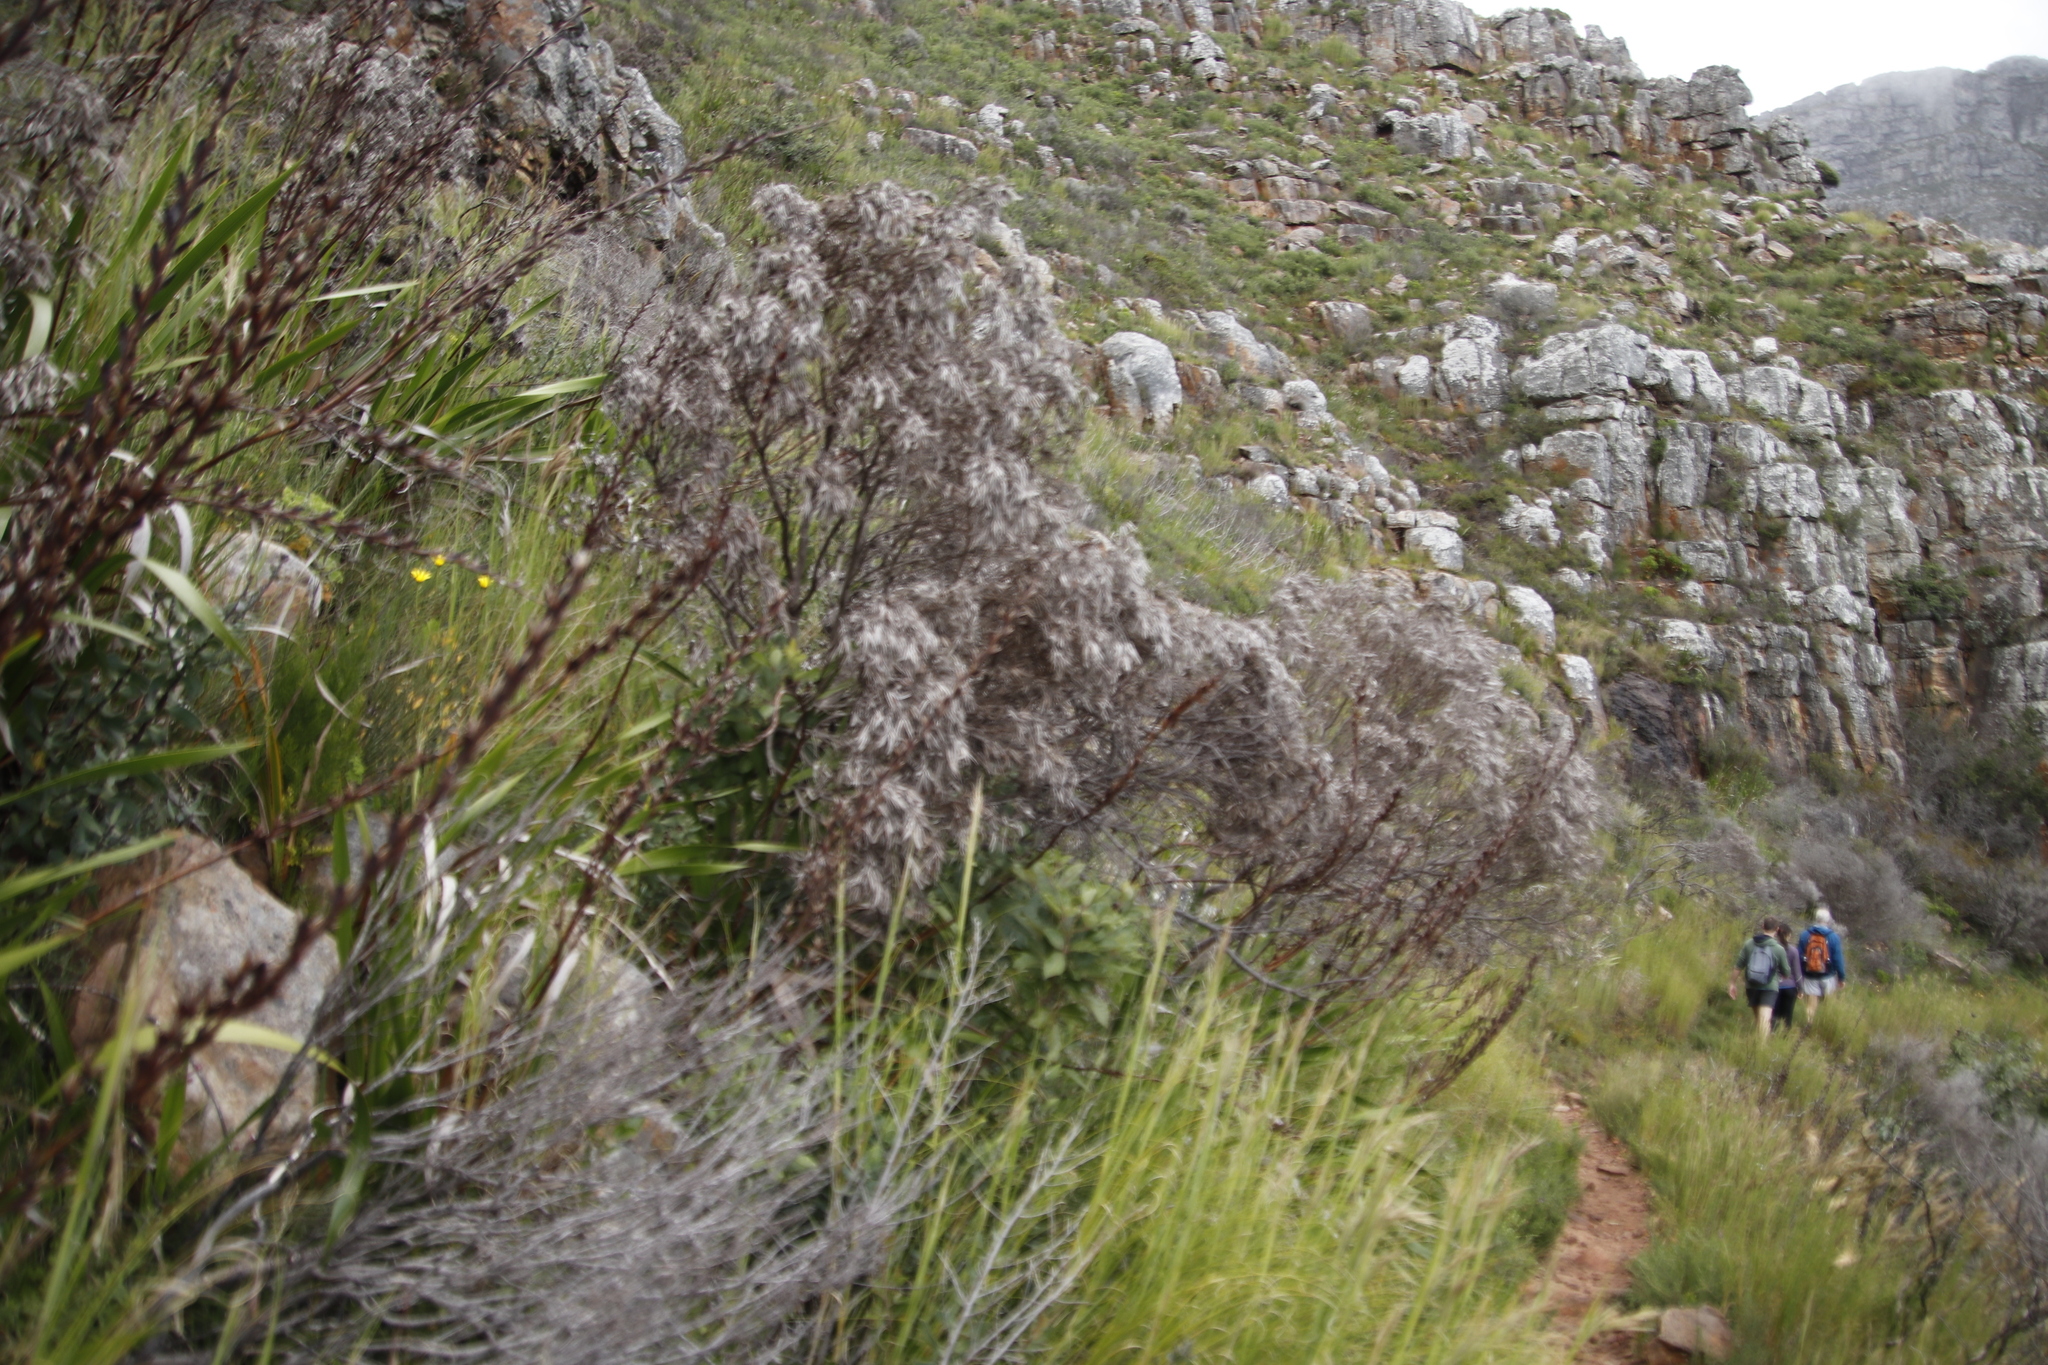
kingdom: Plantae
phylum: Tracheophyta
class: Magnoliopsida
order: Proteales
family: Proteaceae
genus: Leucadendron
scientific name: Leucadendron xanthoconus
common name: Sickle-leaf conebush
